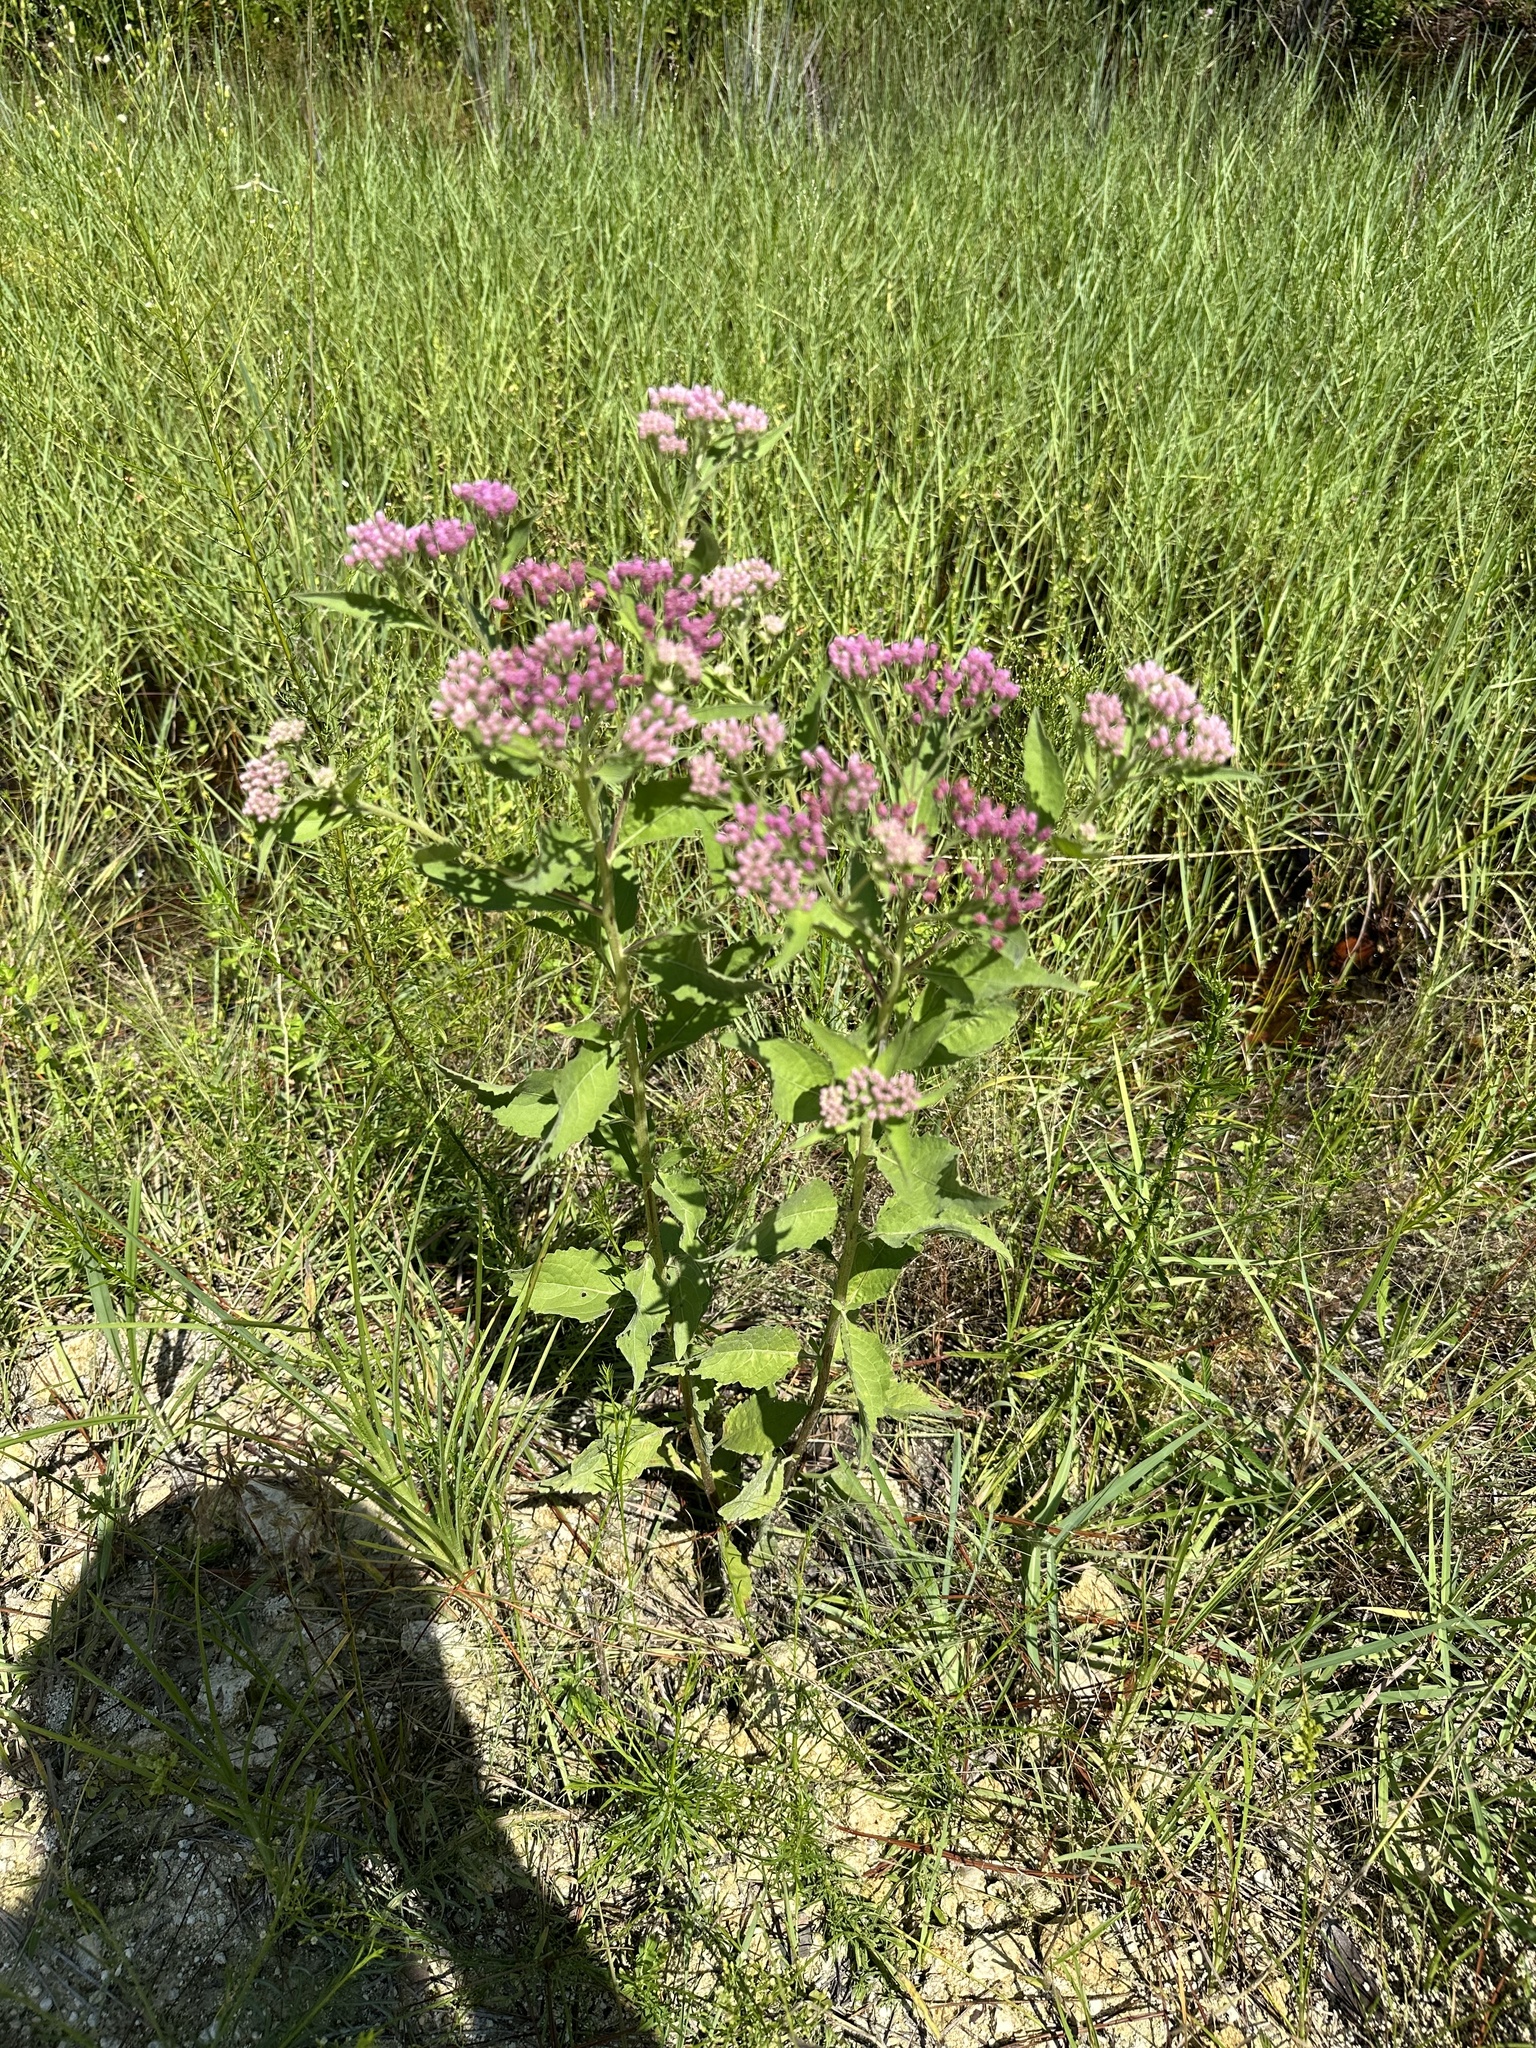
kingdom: Plantae
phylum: Tracheophyta
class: Magnoliopsida
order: Asterales
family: Asteraceae
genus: Pluchea
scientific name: Pluchea odorata
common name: Saltmarsh fleabane
